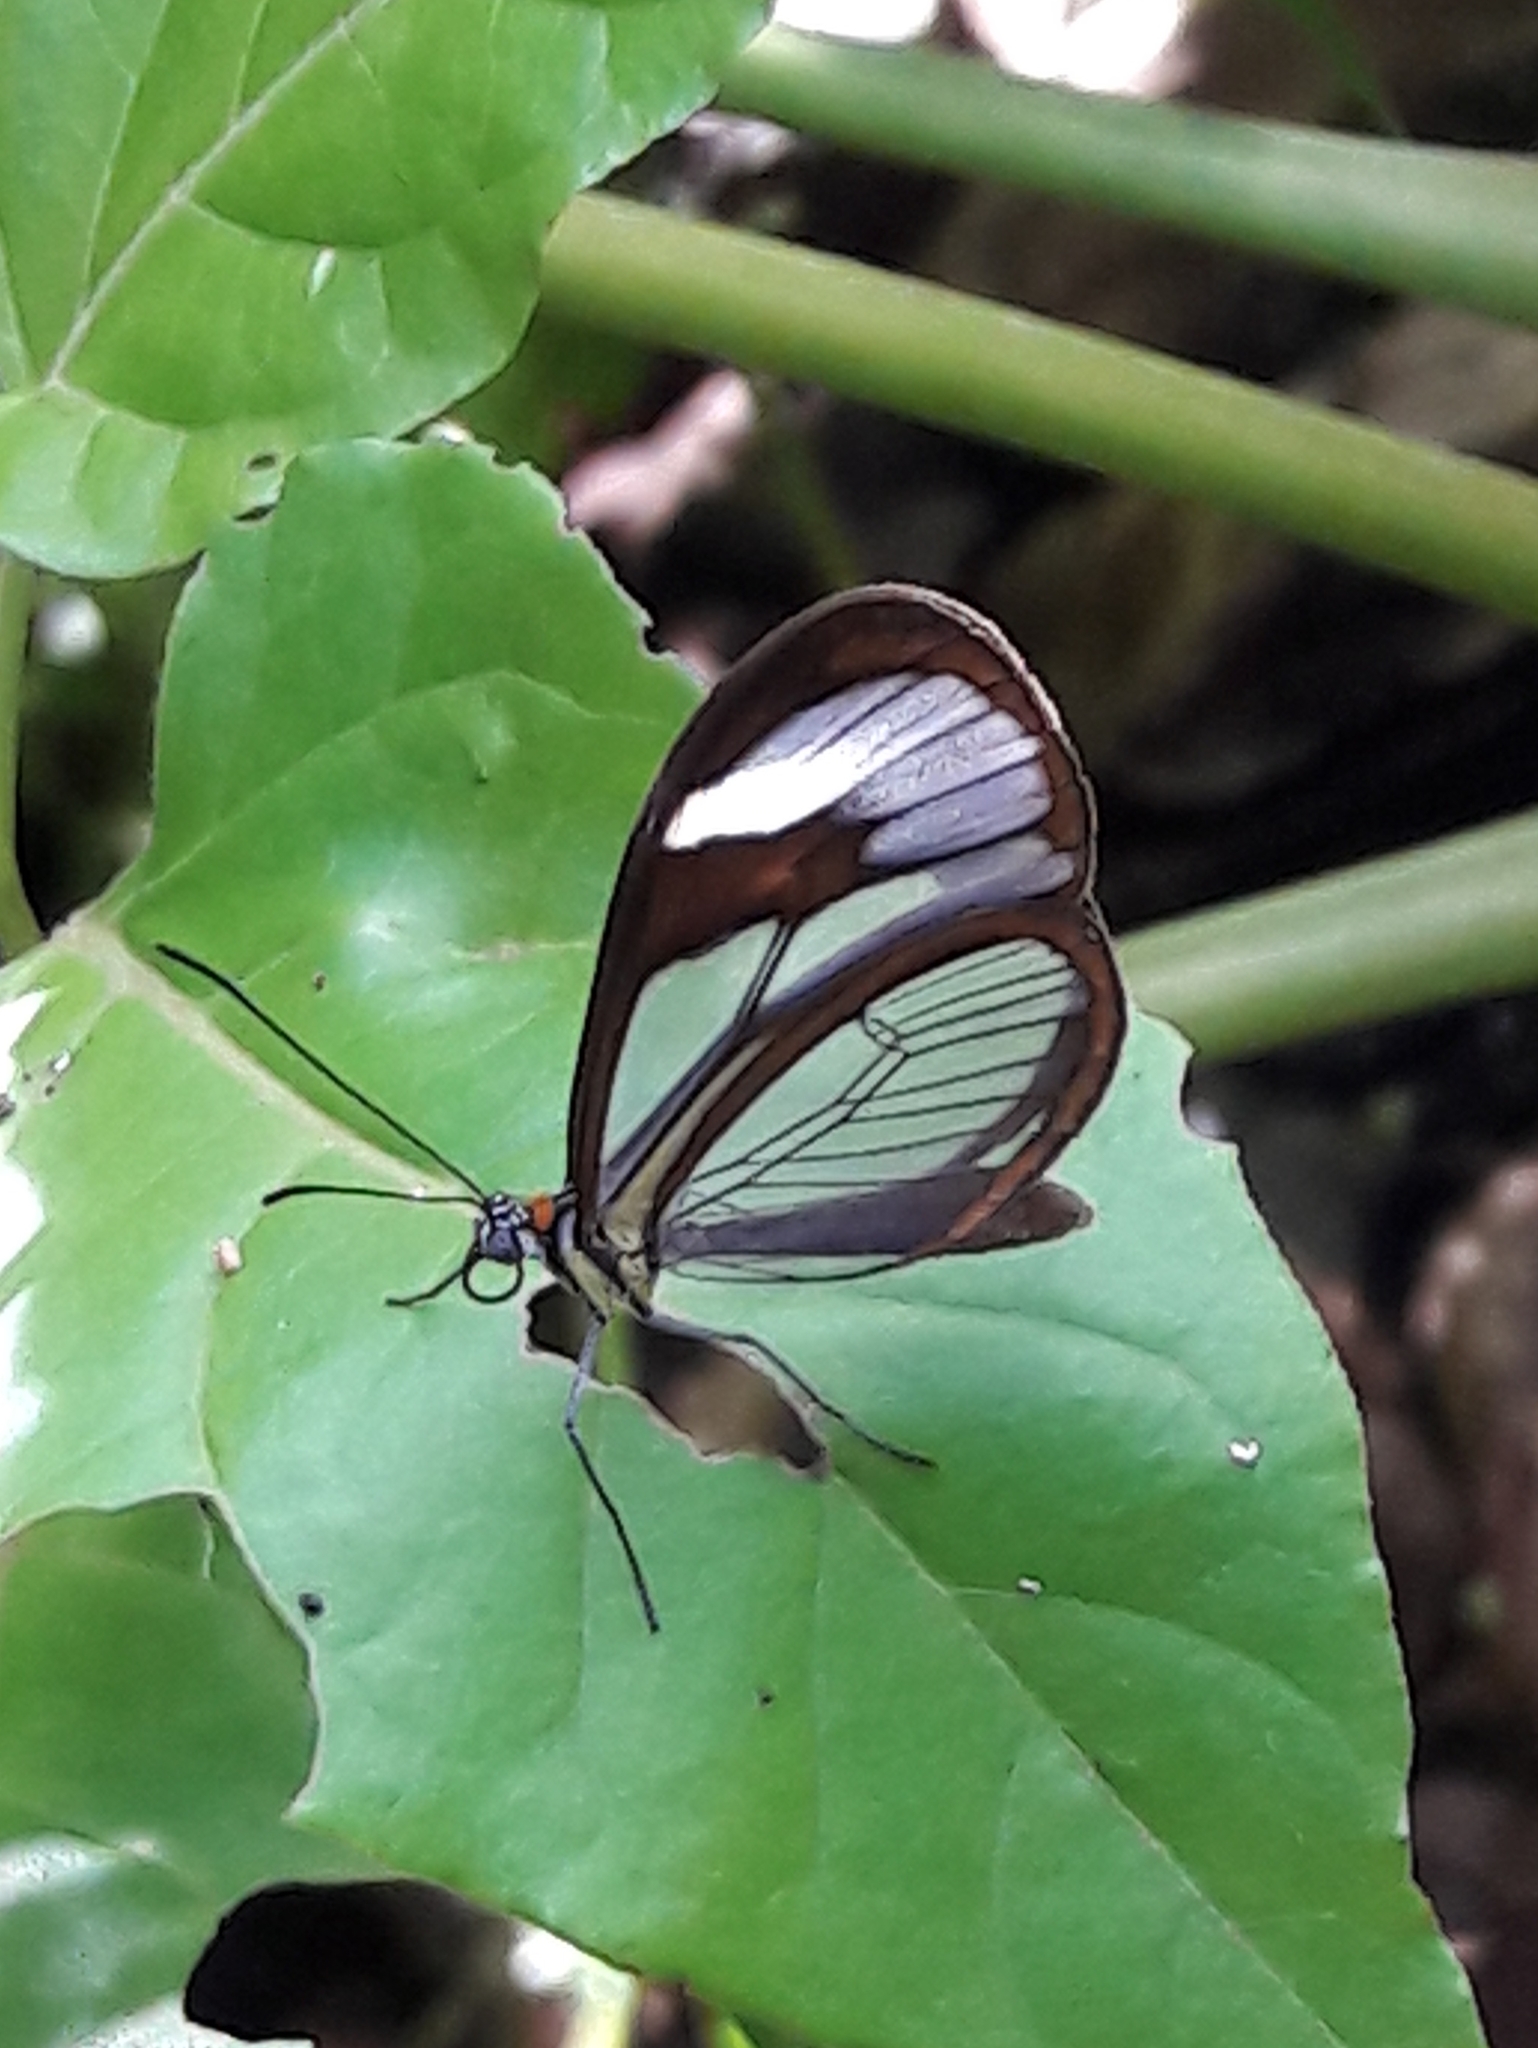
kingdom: Animalia
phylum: Arthropoda
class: Insecta
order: Lepidoptera
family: Nymphalidae
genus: Ithomia
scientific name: Ithomia agnosia
